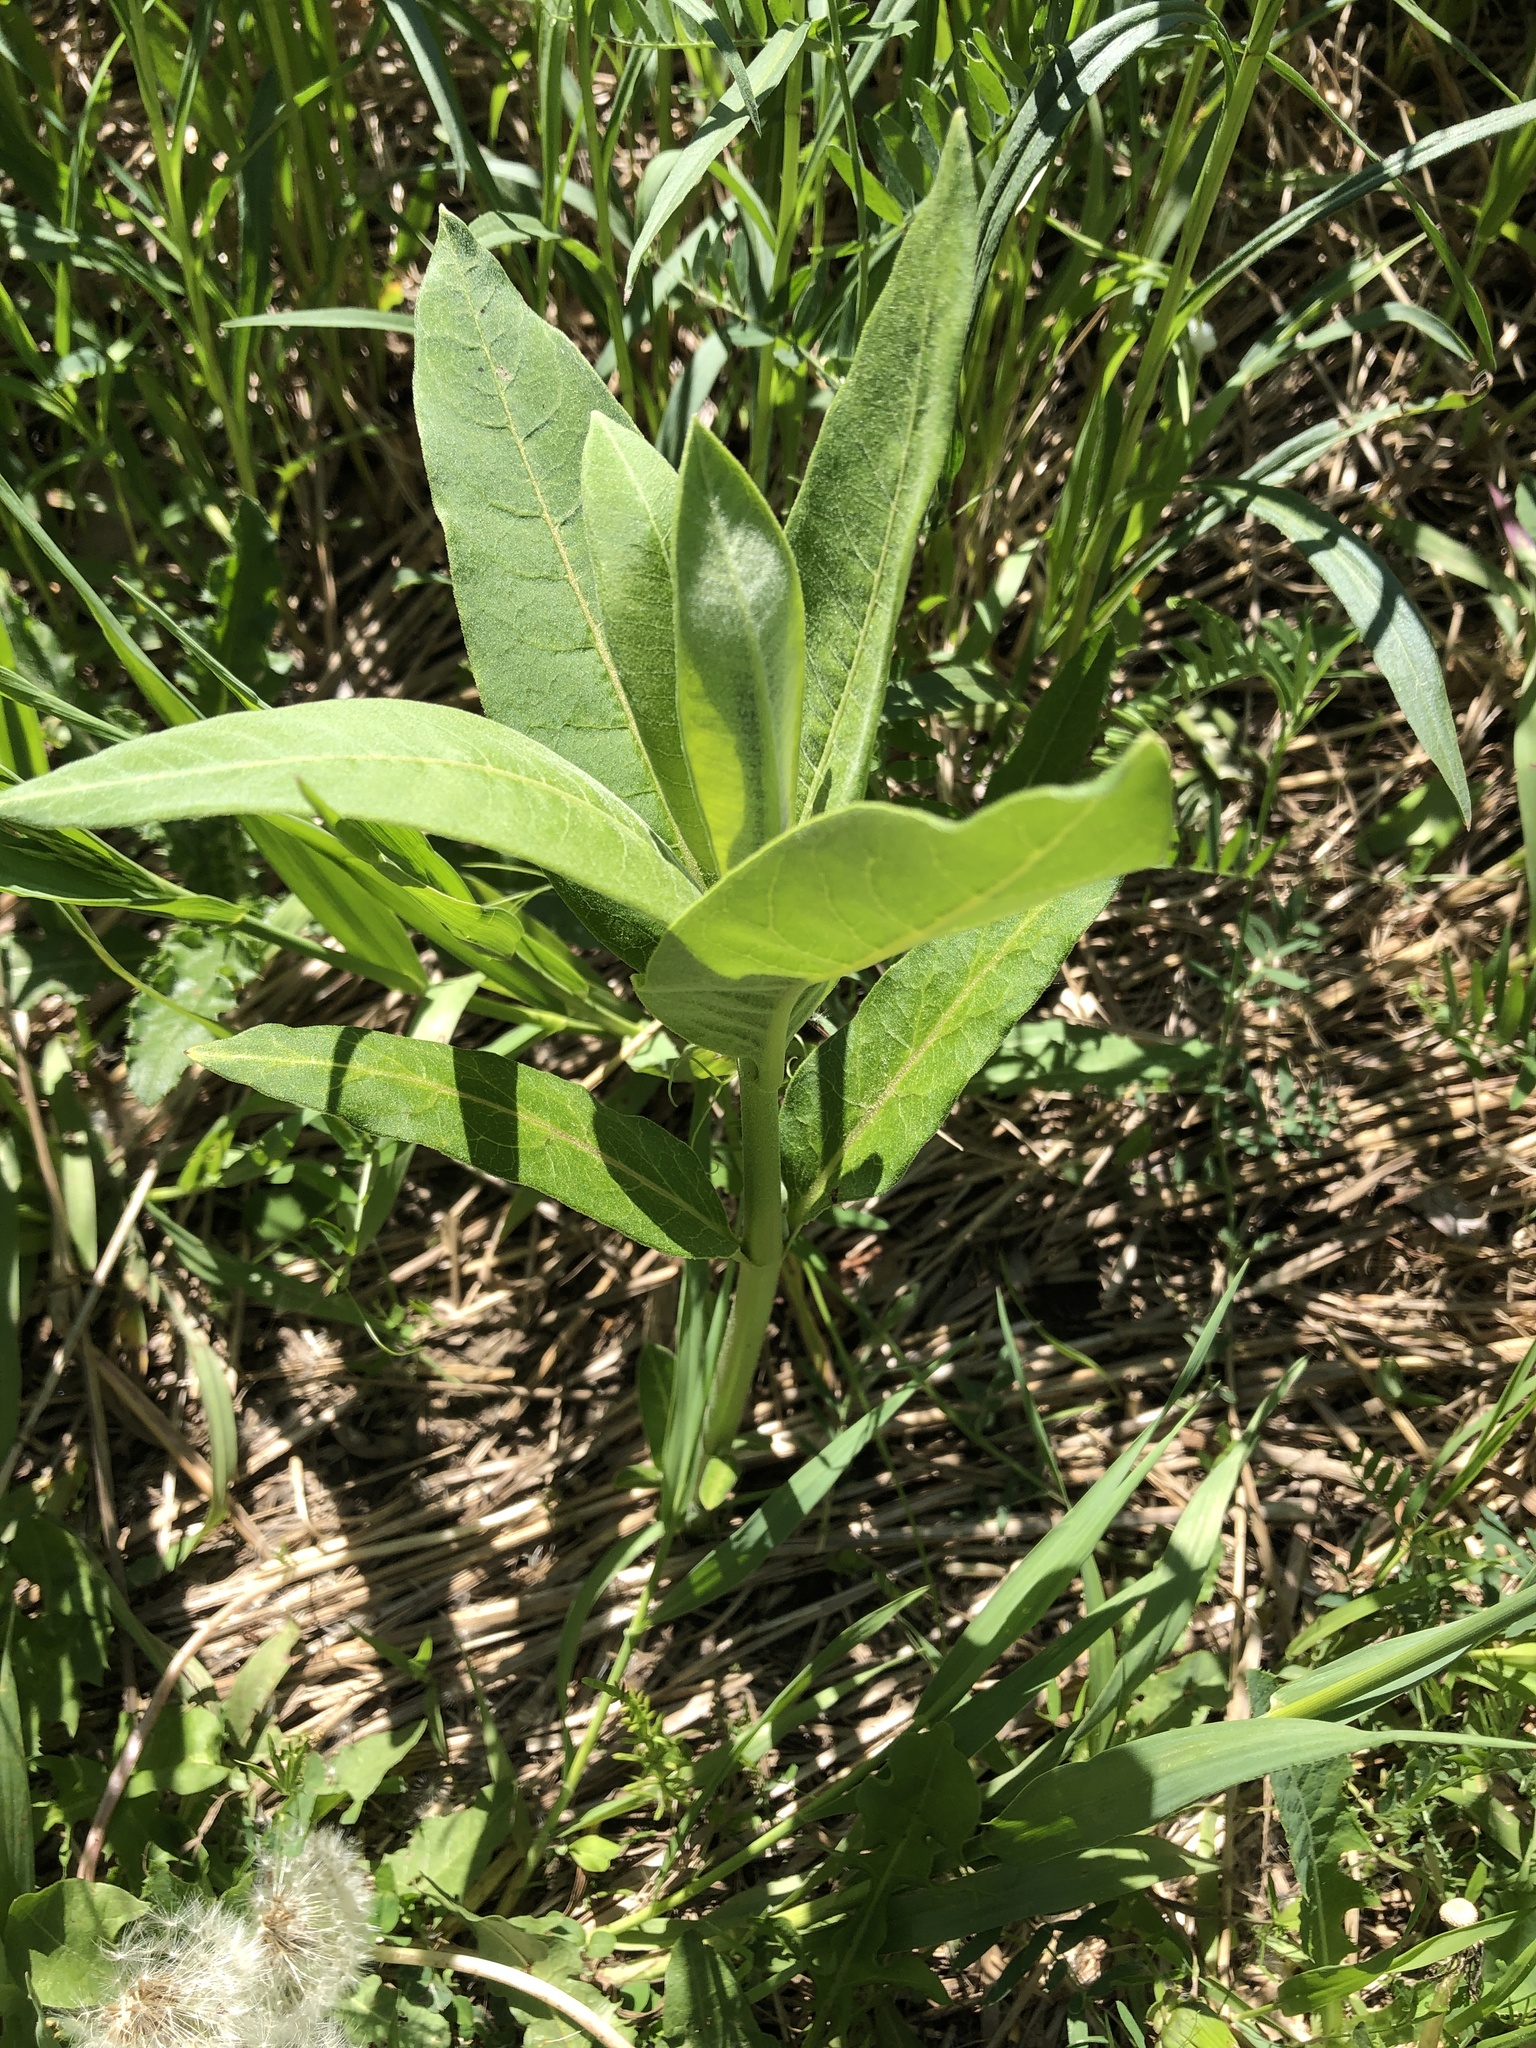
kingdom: Plantae
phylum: Tracheophyta
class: Magnoliopsida
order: Gentianales
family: Apocynaceae
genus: Asclepias
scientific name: Asclepias syriaca
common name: Common milkweed
